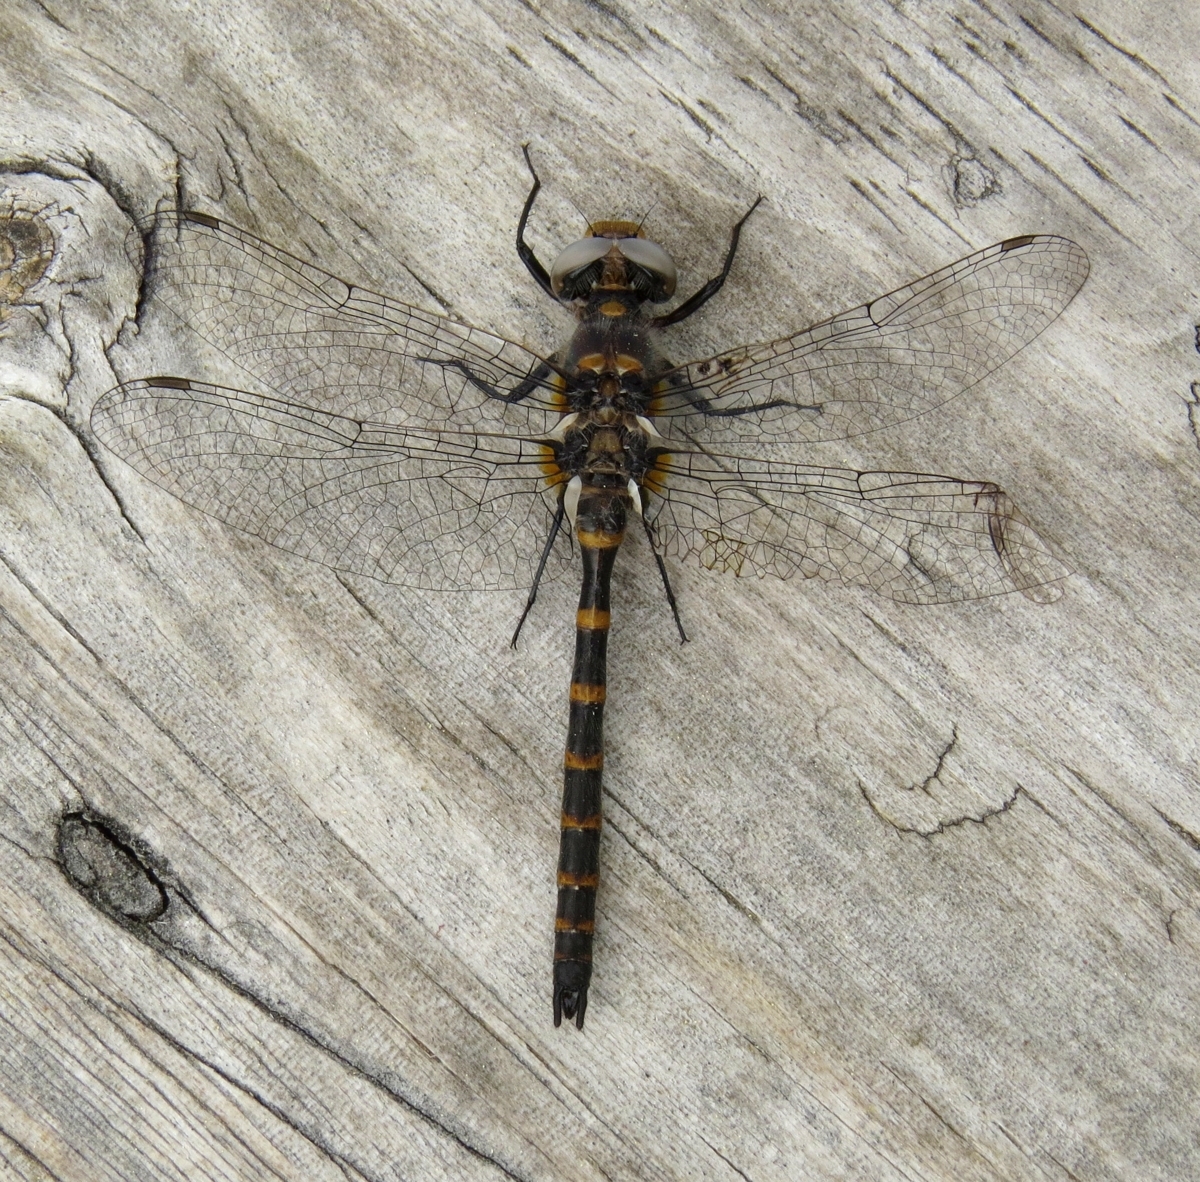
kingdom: Animalia
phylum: Arthropoda
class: Insecta
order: Odonata
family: Corduliidae
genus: Williamsonia
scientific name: Williamsonia lintneri
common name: Ringed boghaunter
